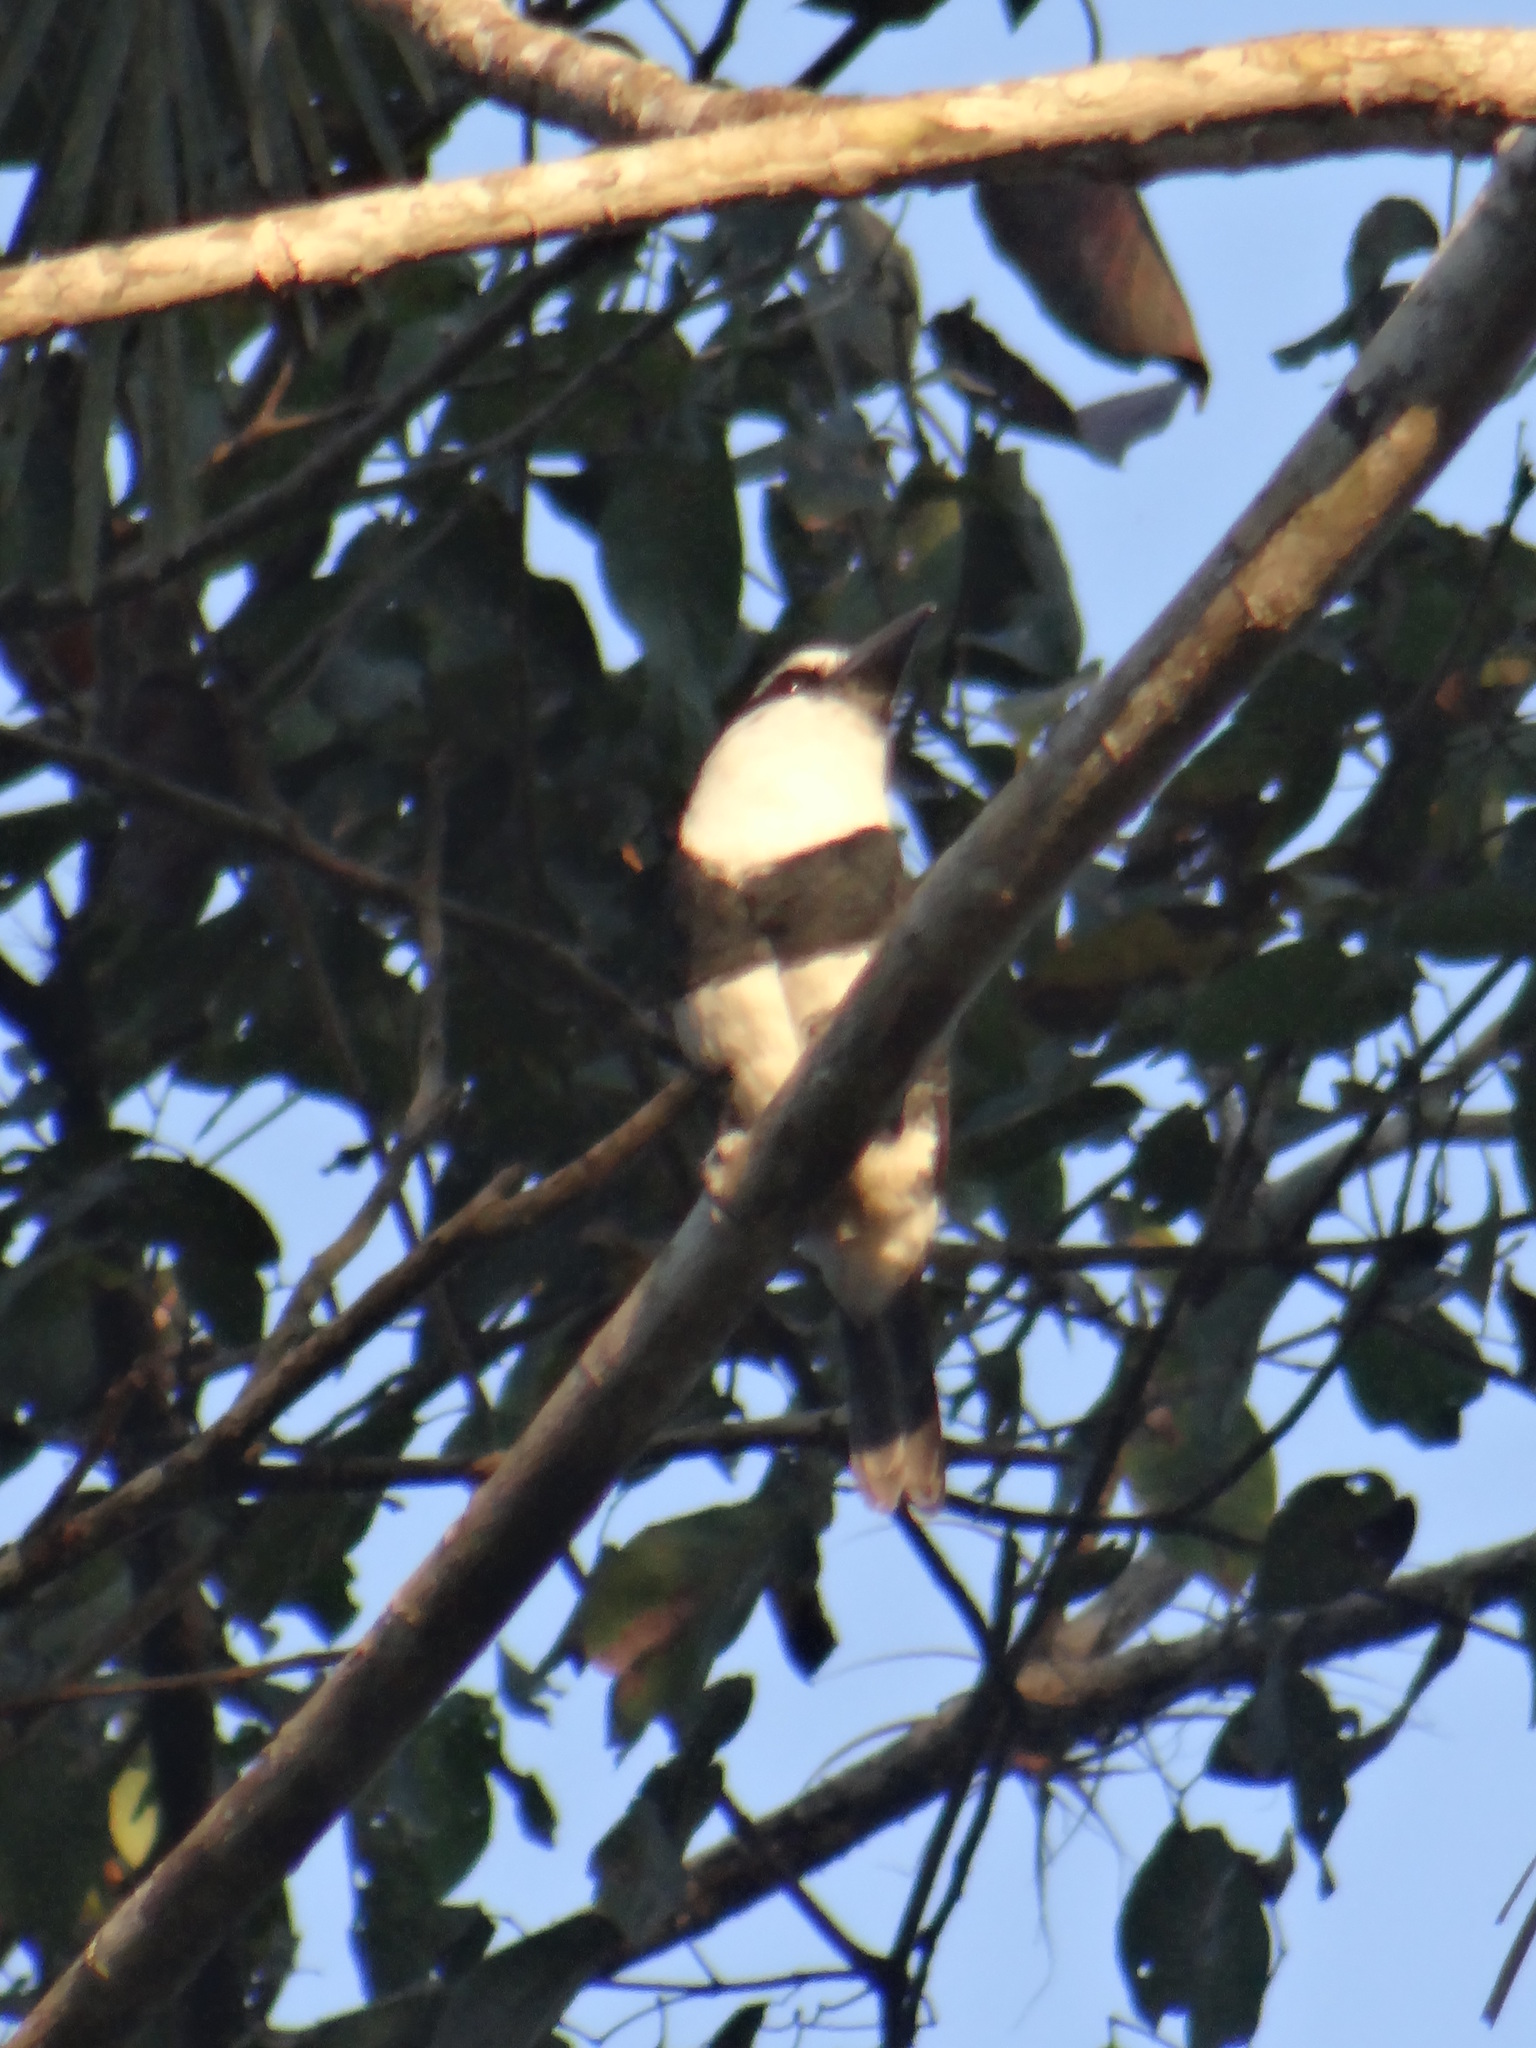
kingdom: Animalia
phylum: Chordata
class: Aves
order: Piciformes
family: Bucconidae
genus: Notharchus
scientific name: Notharchus hyperrhynchus
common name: White-necked puffbird
